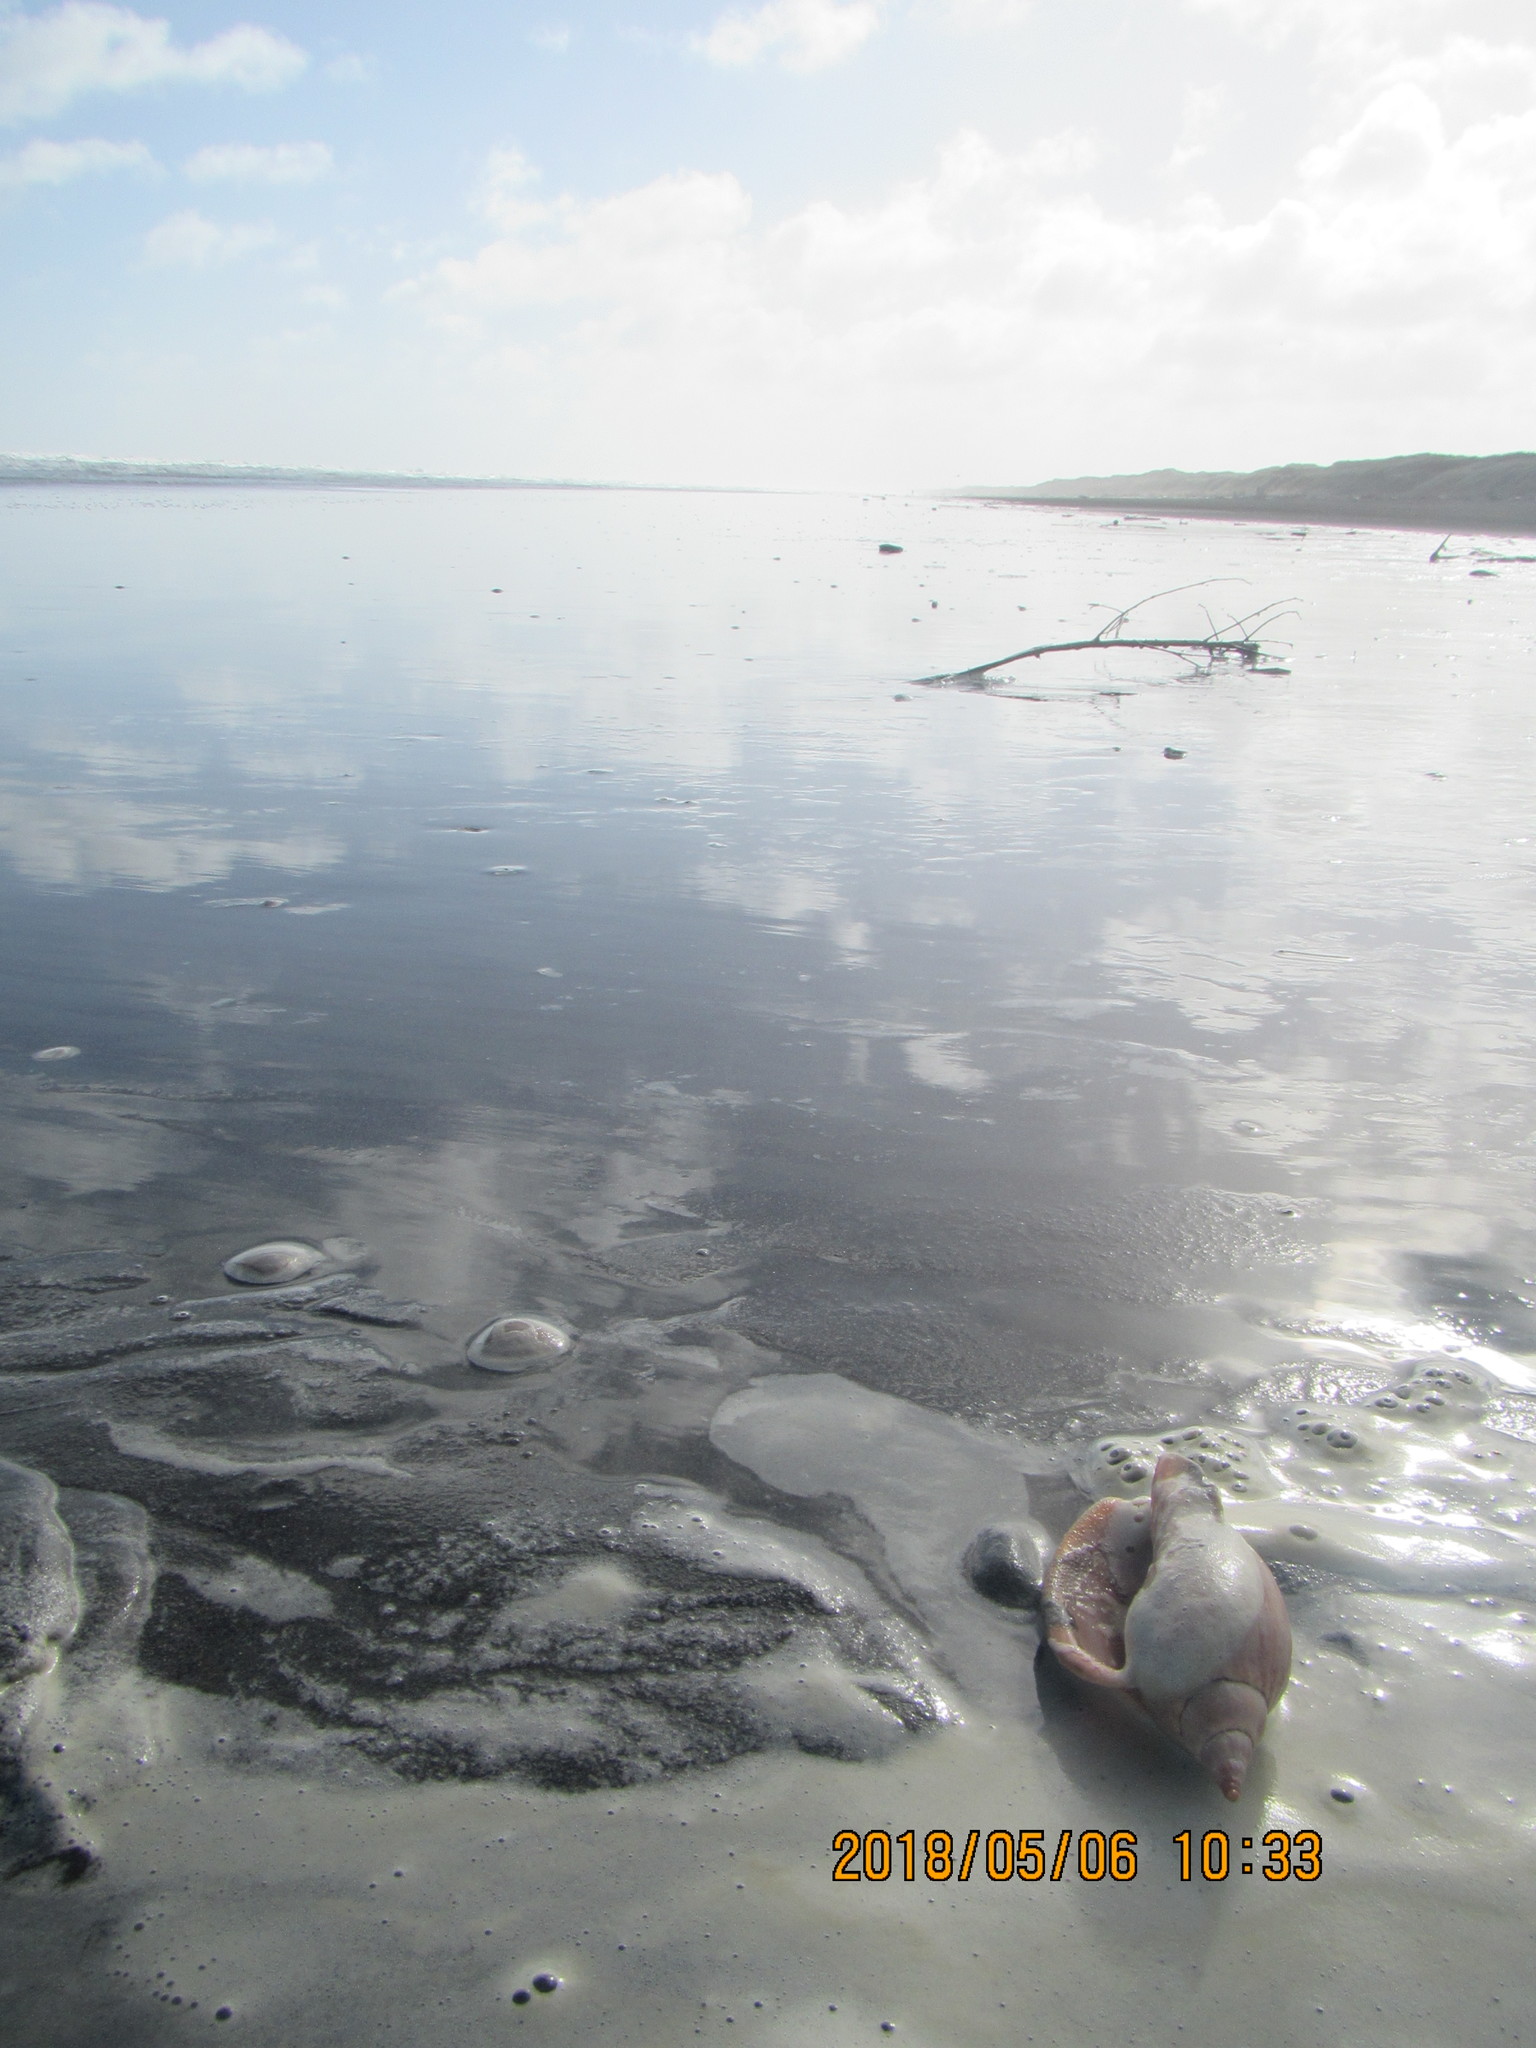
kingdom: Animalia
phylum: Mollusca
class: Gastropoda
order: Neogastropoda
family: Volutidae
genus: Alcithoe
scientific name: Alcithoe arabica
